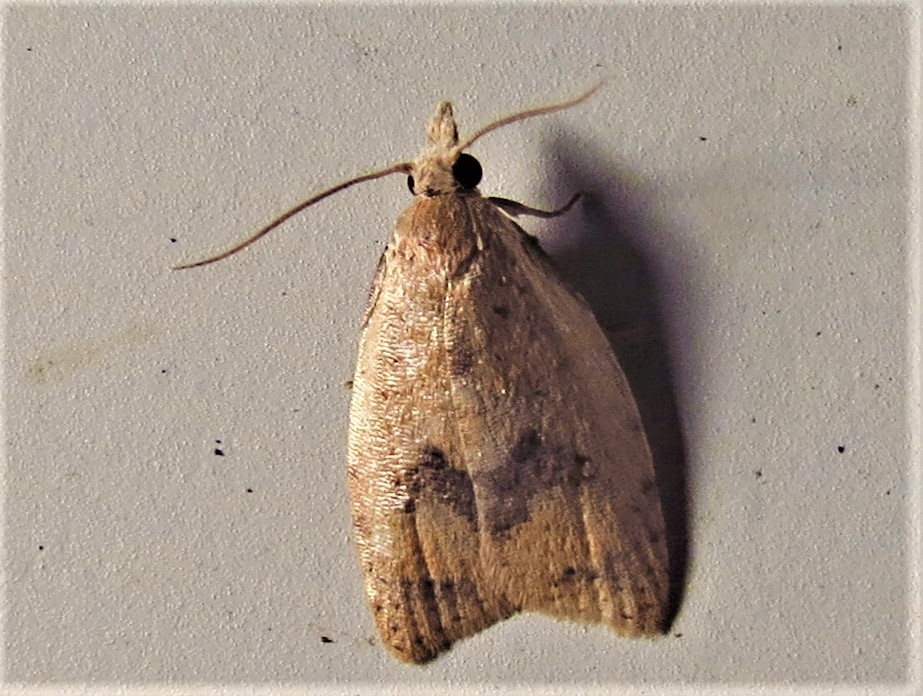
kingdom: Animalia
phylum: Arthropoda
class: Insecta
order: Lepidoptera
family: Tortricidae
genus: Sparganothoides
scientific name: Sparganothoides lentiginosana
